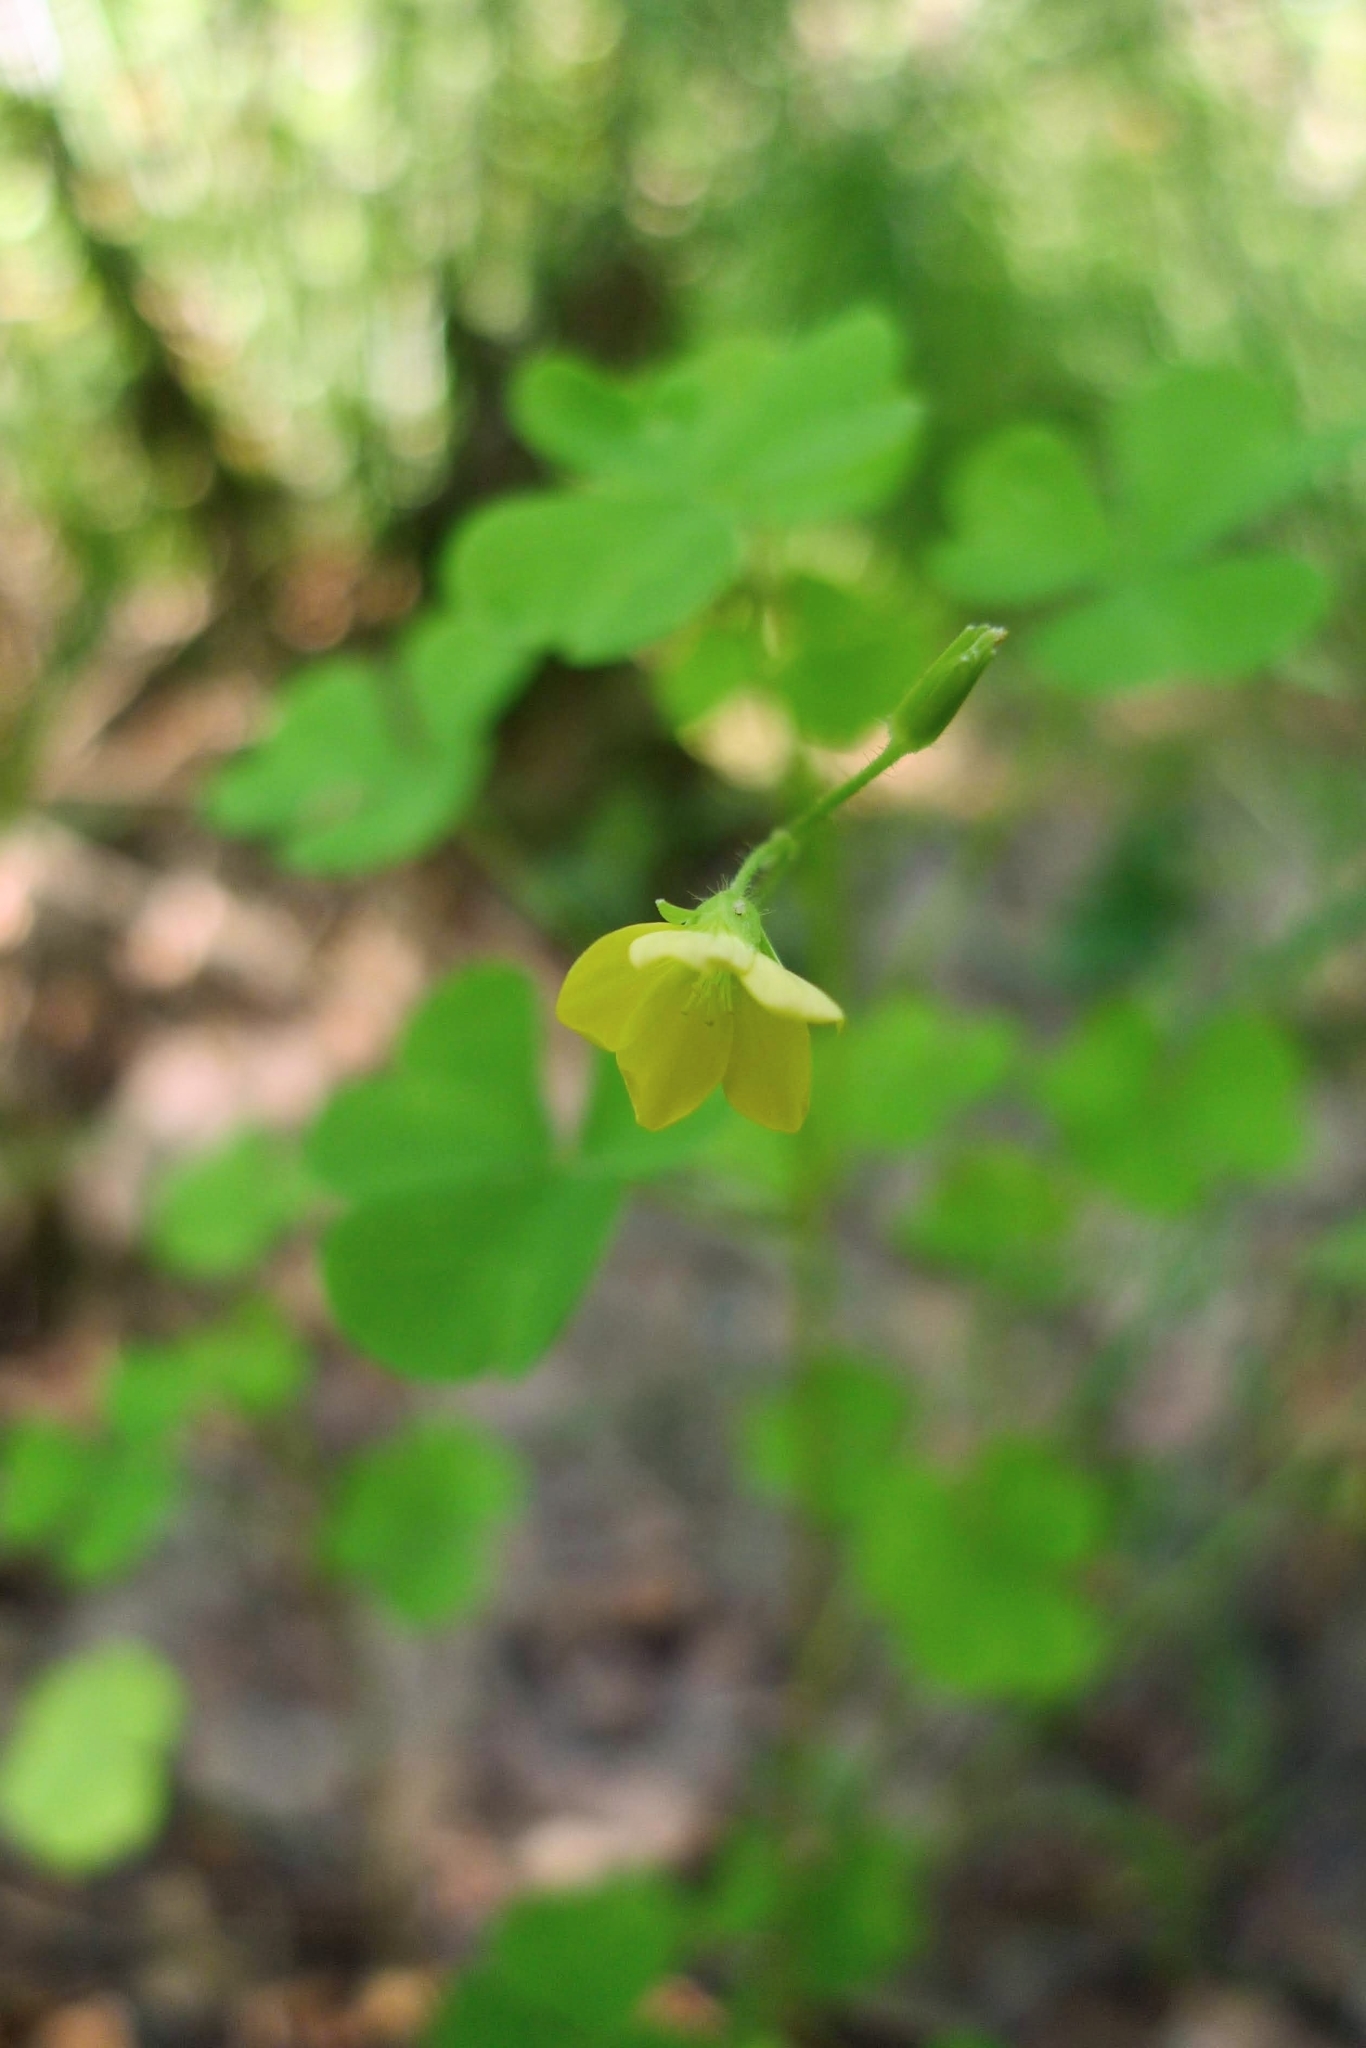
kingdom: Plantae
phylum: Tracheophyta
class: Magnoliopsida
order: Oxalidales
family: Oxalidaceae
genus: Oxalis
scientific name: Oxalis stricta
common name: Upright yellow-sorrel
